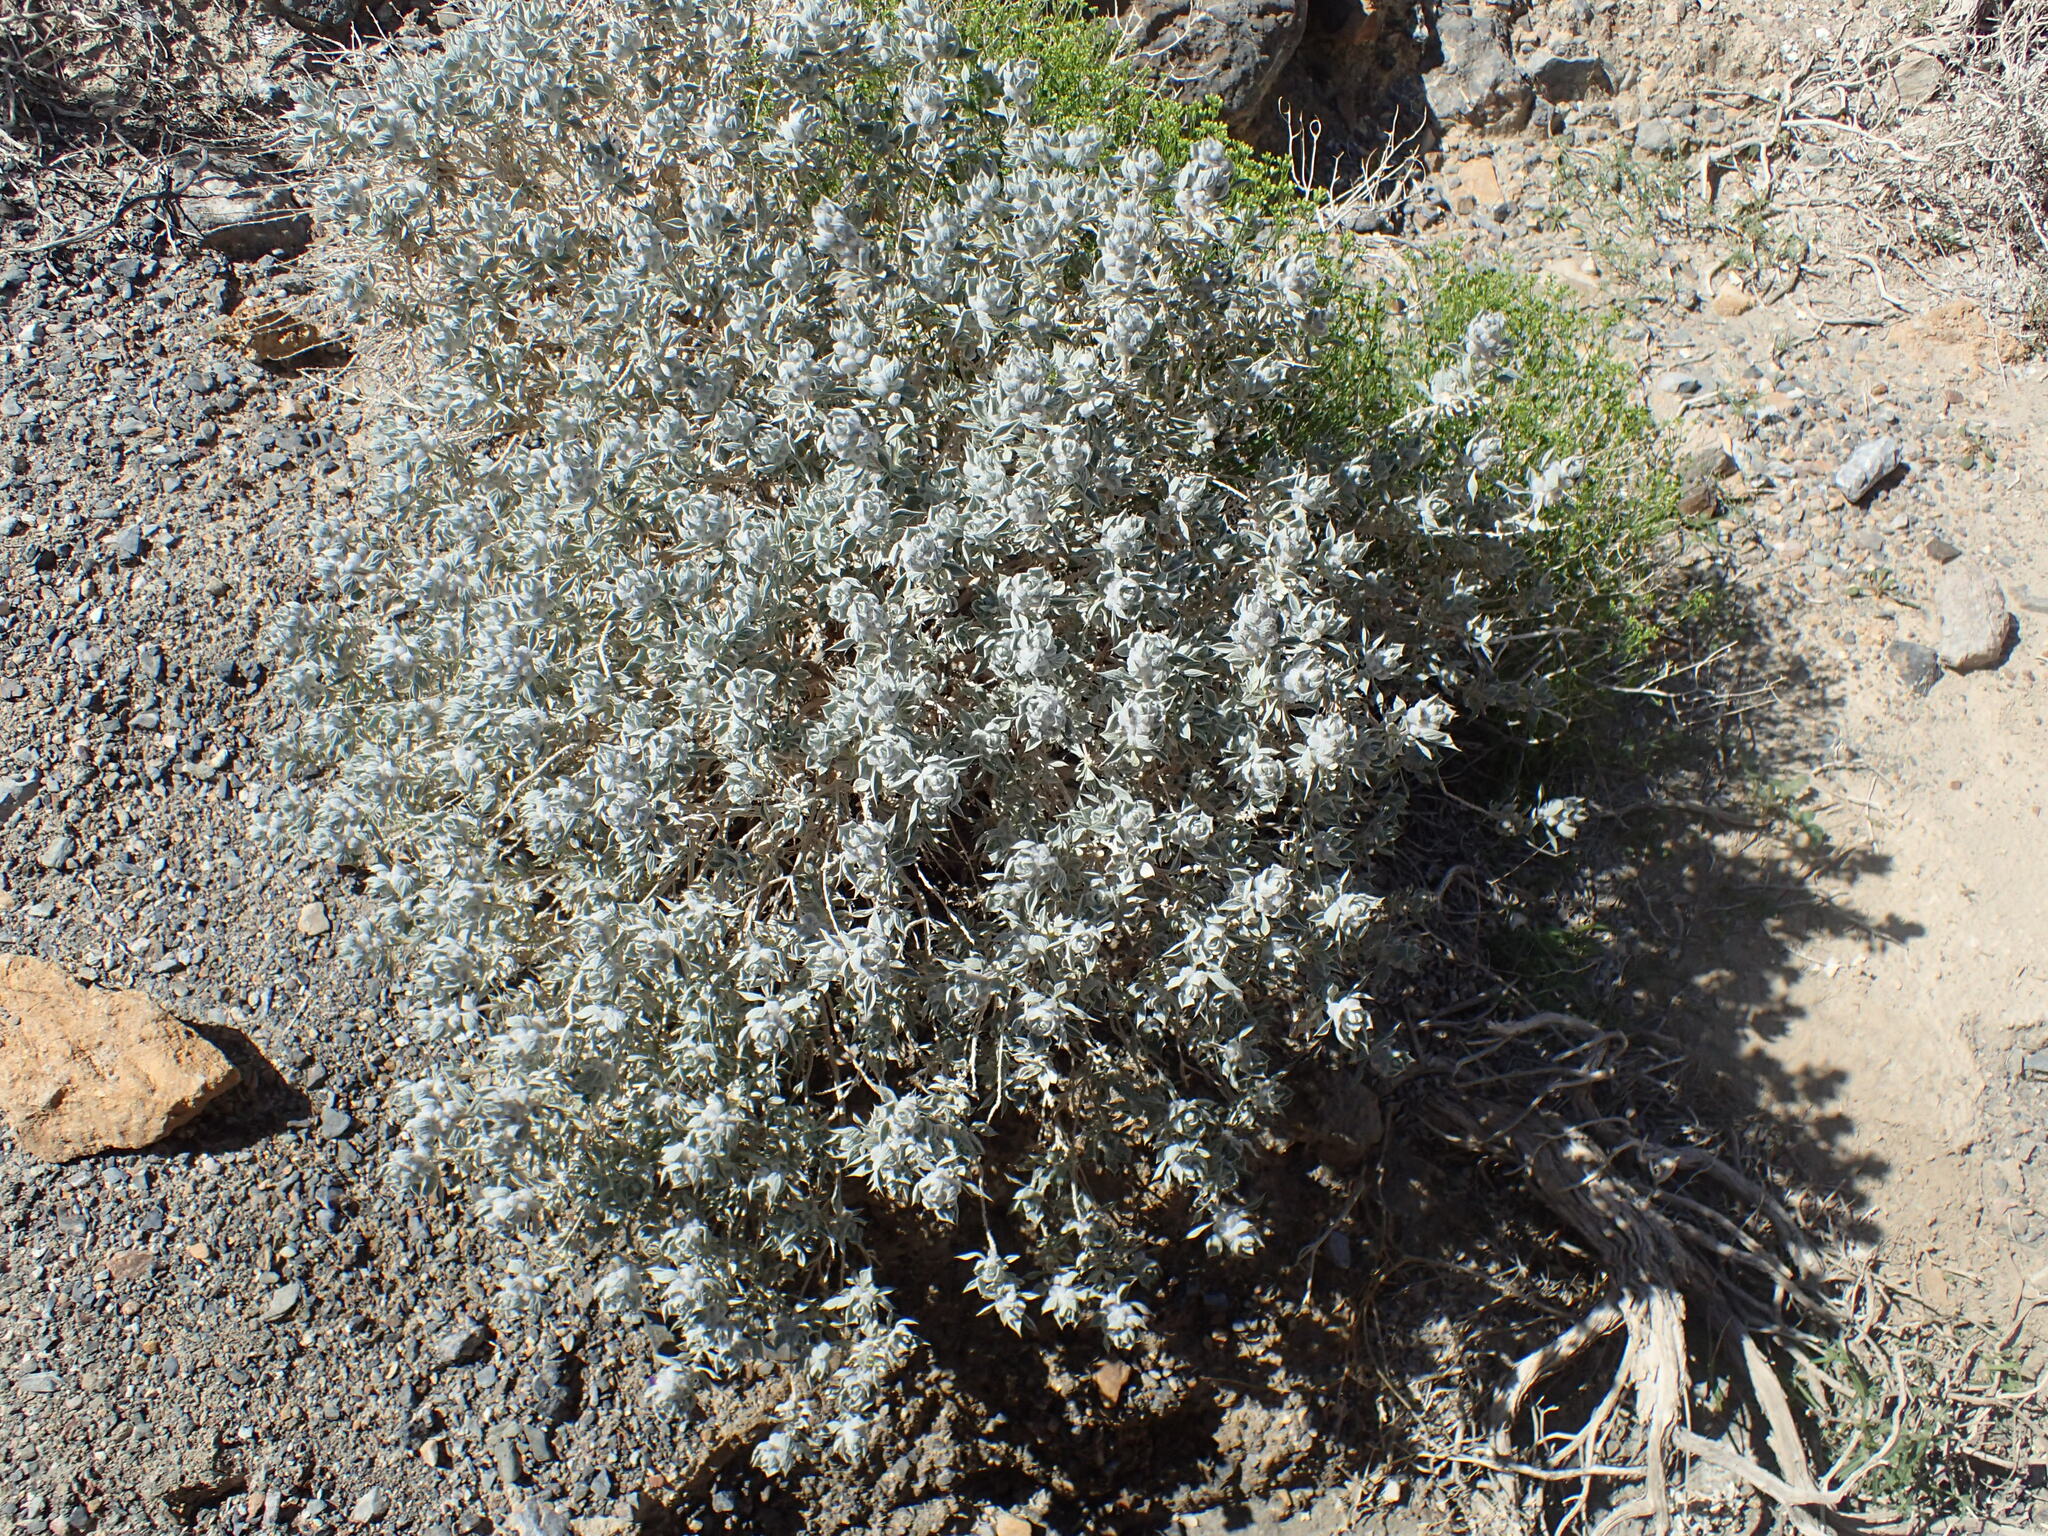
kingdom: Plantae
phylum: Tracheophyta
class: Magnoliopsida
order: Lamiales
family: Lamiaceae
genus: Salvia
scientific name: Salvia funerea
